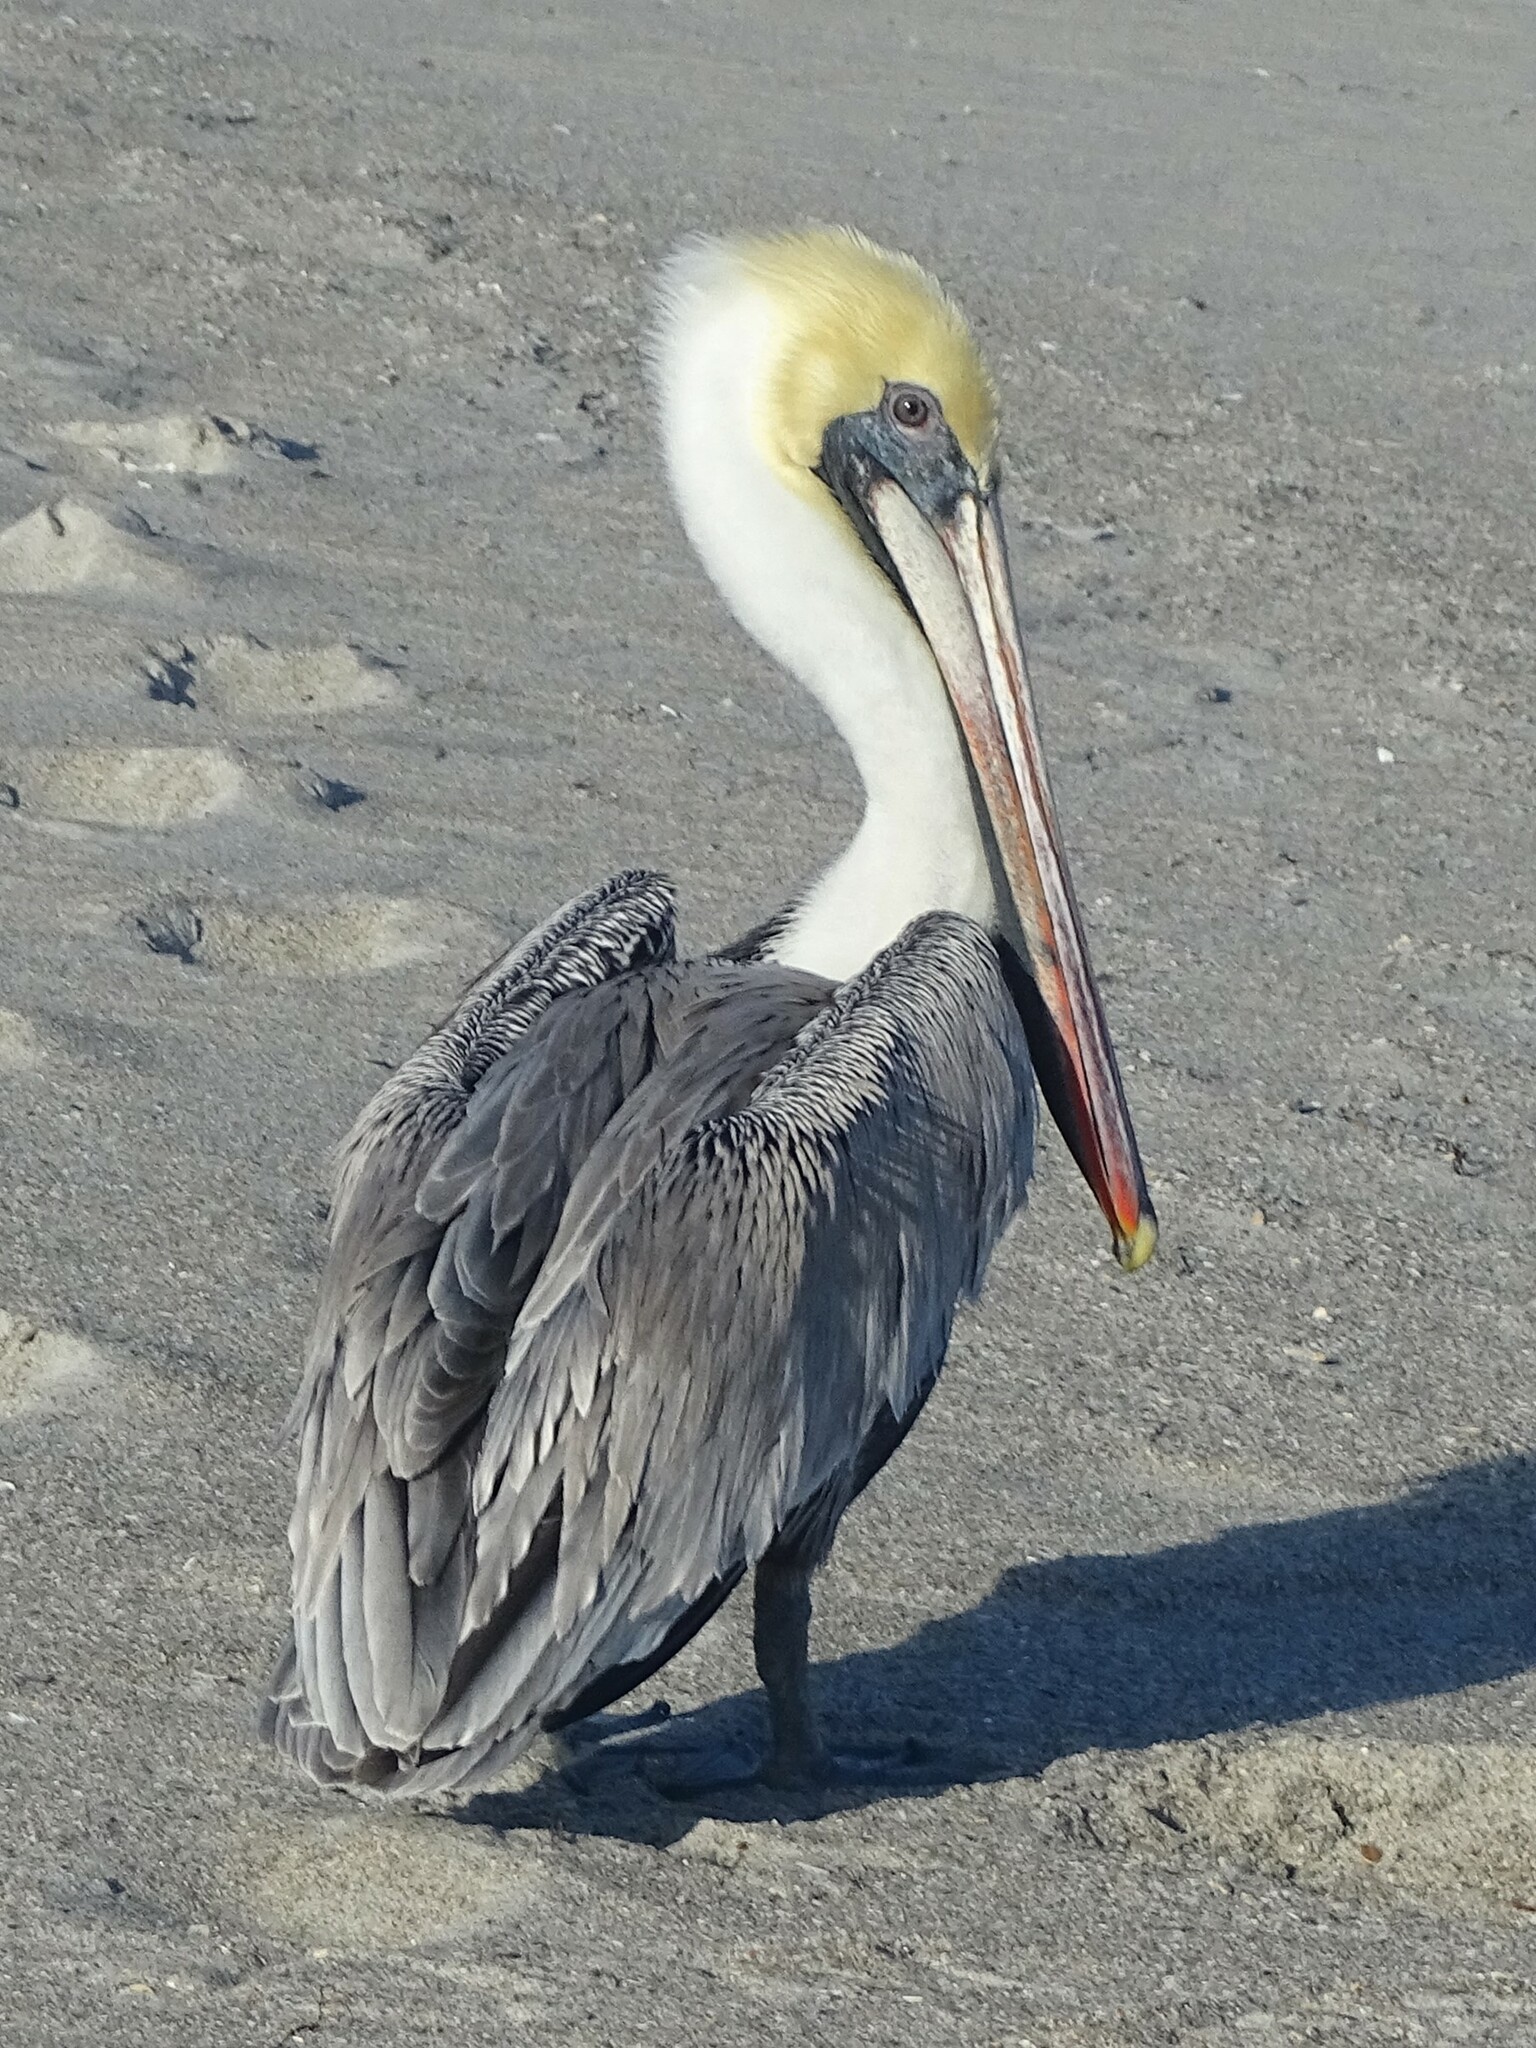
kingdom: Animalia
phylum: Chordata
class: Aves
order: Pelecaniformes
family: Pelecanidae
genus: Pelecanus
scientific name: Pelecanus occidentalis
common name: Brown pelican
